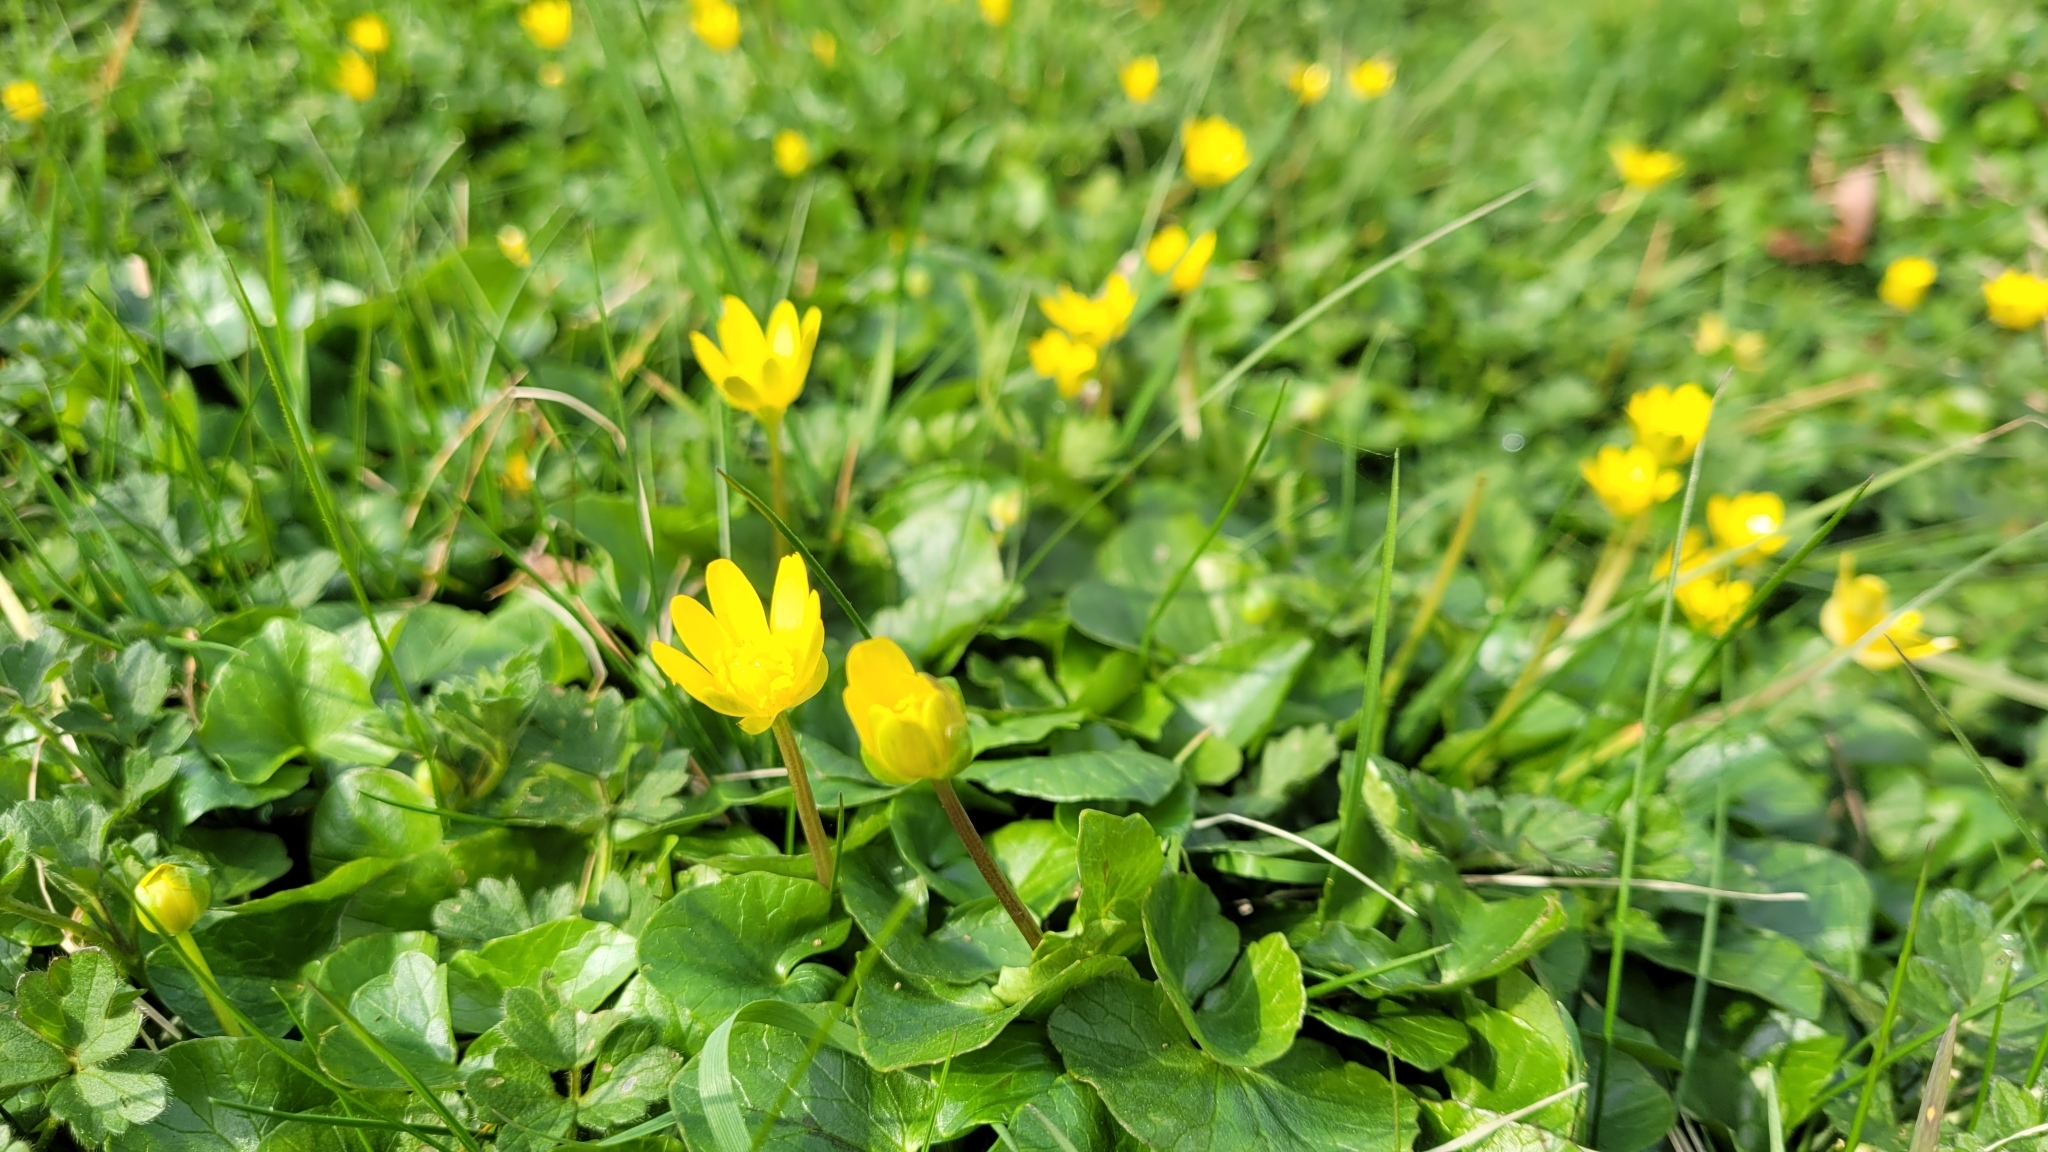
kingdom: Plantae
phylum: Tracheophyta
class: Magnoliopsida
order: Ranunculales
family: Ranunculaceae
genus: Ficaria
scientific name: Ficaria verna
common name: Lesser celandine
